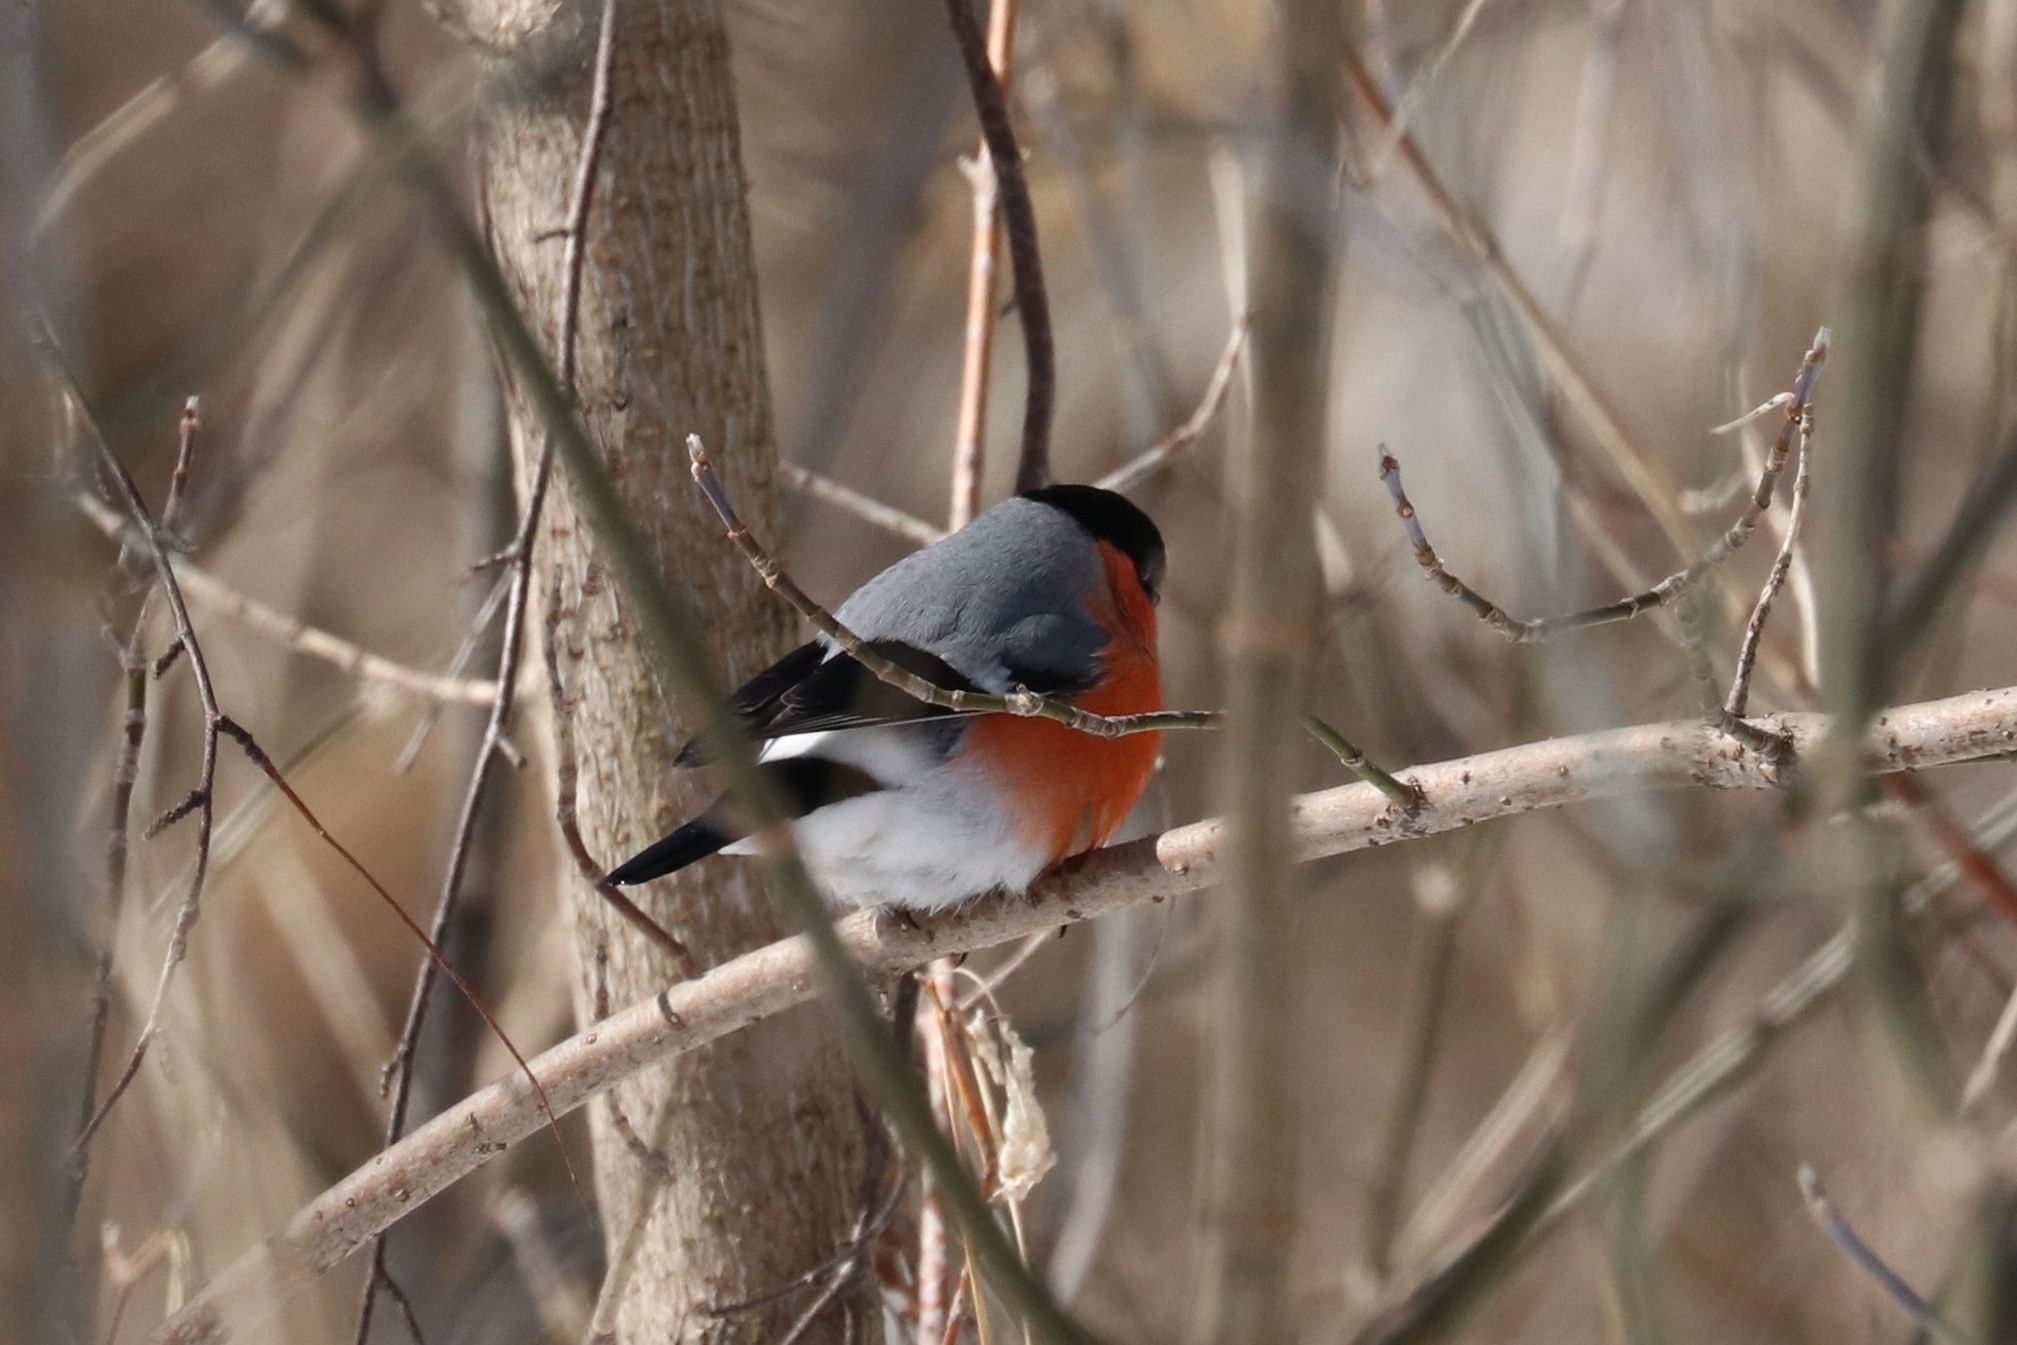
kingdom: Animalia
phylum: Chordata
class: Aves
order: Passeriformes
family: Fringillidae
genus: Pyrrhula
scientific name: Pyrrhula pyrrhula
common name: Eurasian bullfinch
